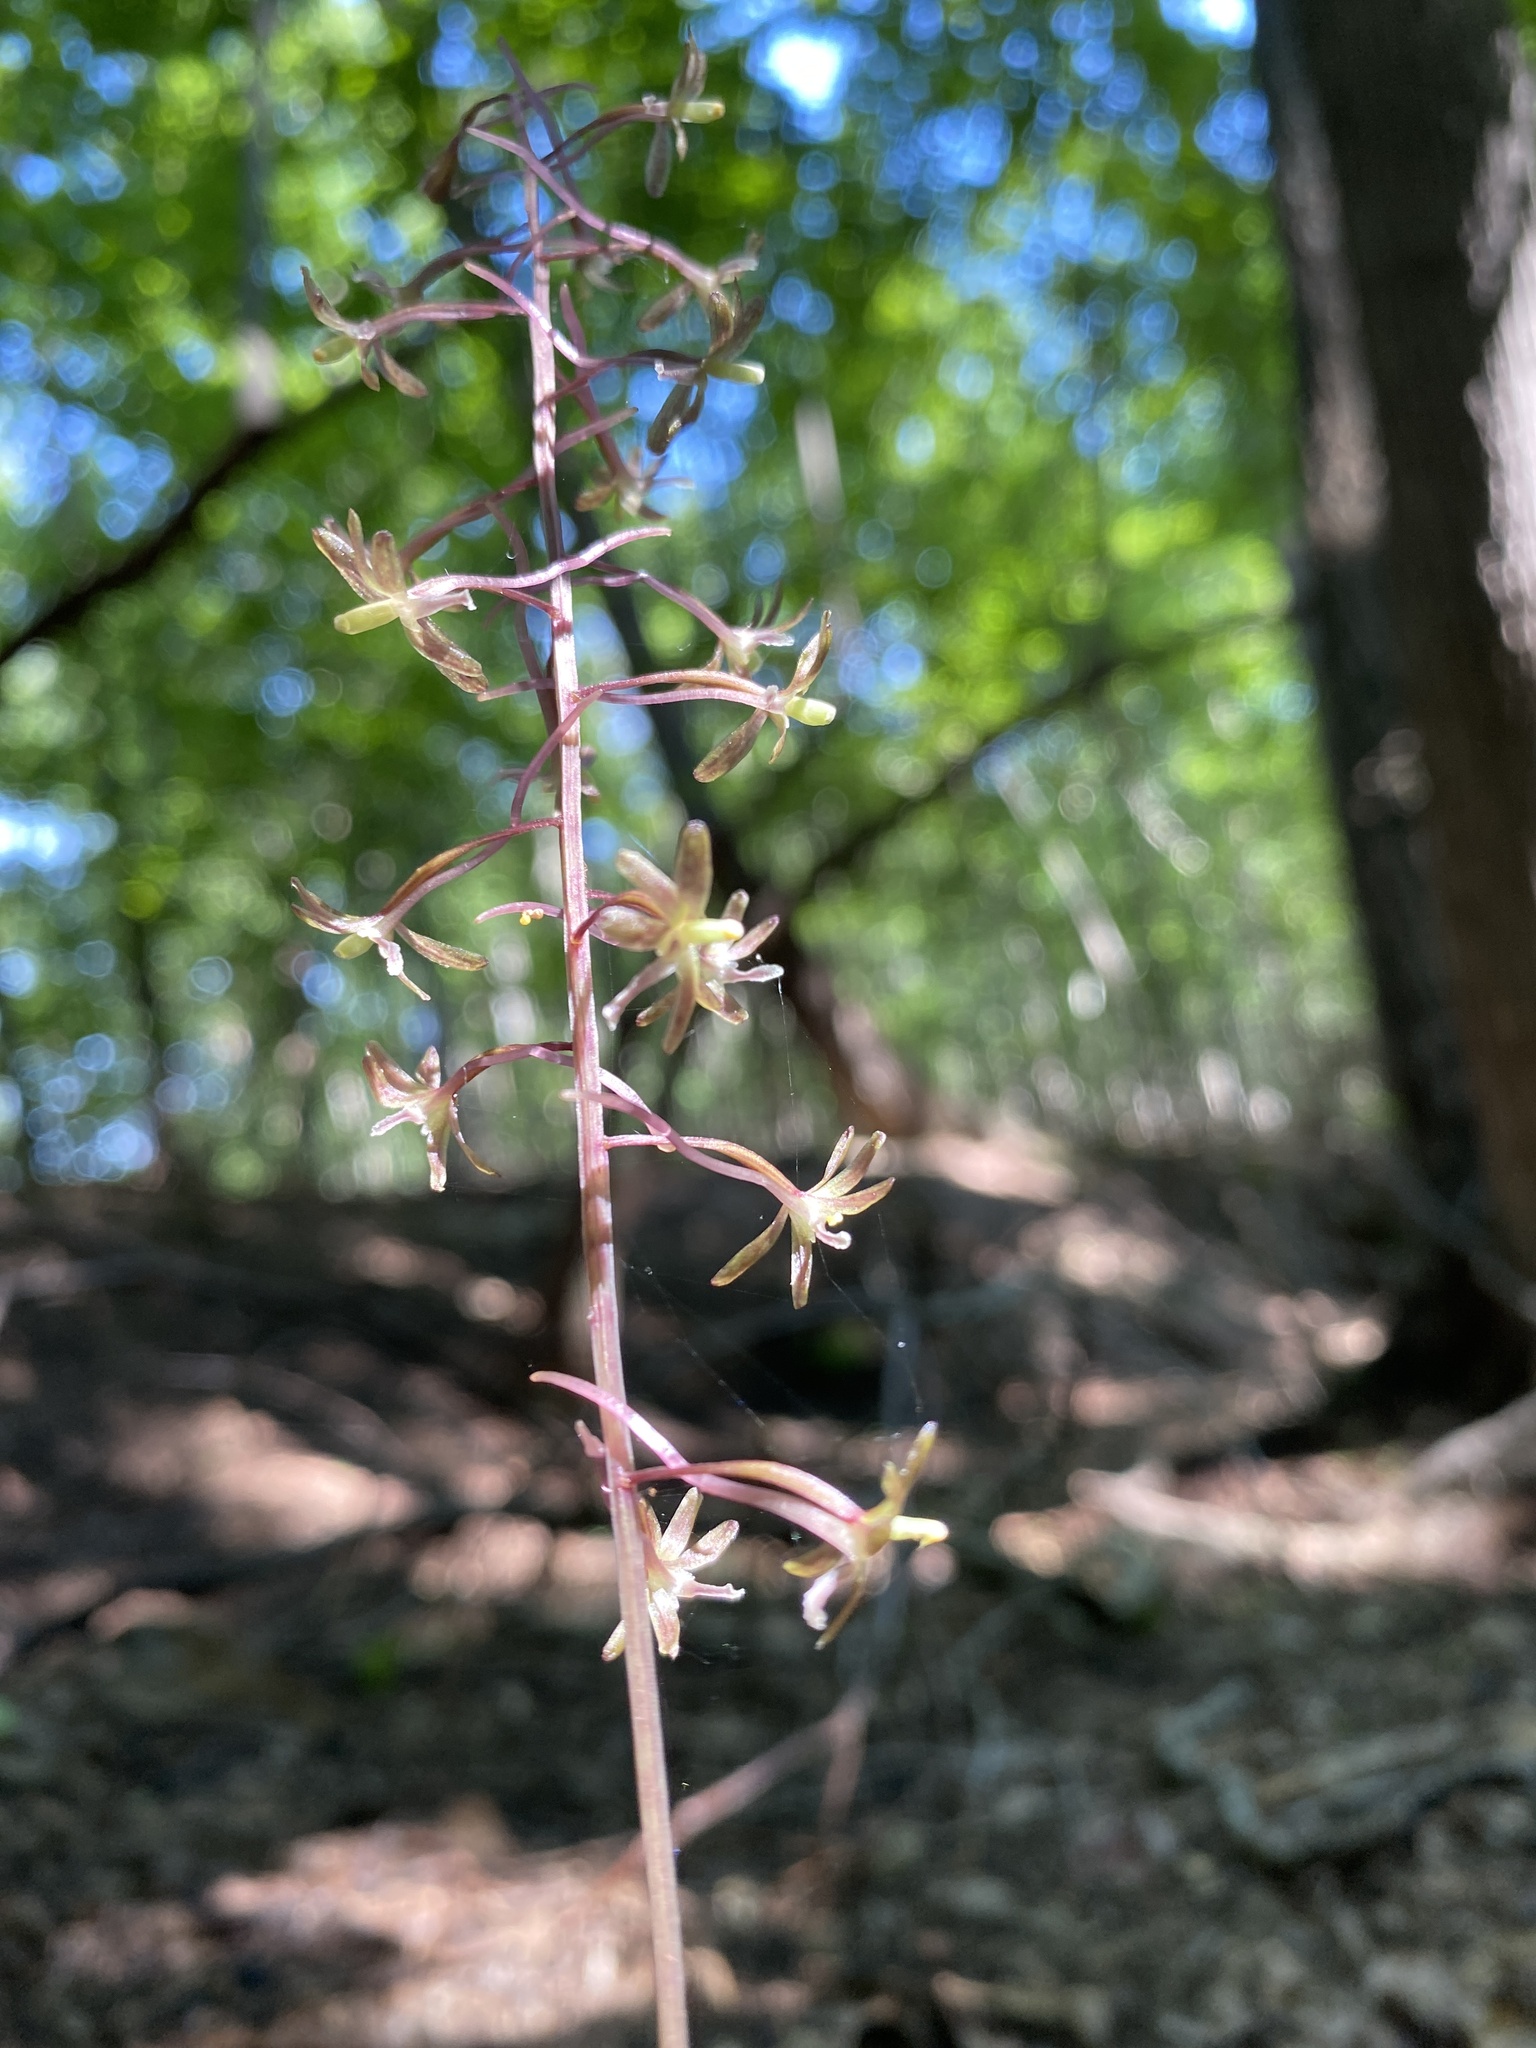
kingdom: Plantae
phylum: Tracheophyta
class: Liliopsida
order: Asparagales
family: Orchidaceae
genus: Tipularia
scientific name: Tipularia discolor
